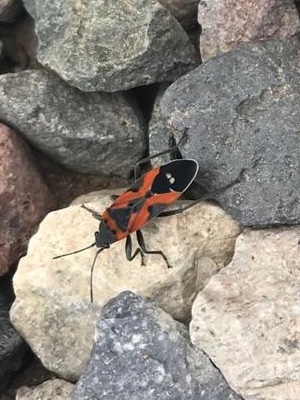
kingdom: Animalia
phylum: Arthropoda
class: Insecta
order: Hemiptera
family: Lygaeidae
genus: Lygaeus
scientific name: Lygaeus reclivatus
